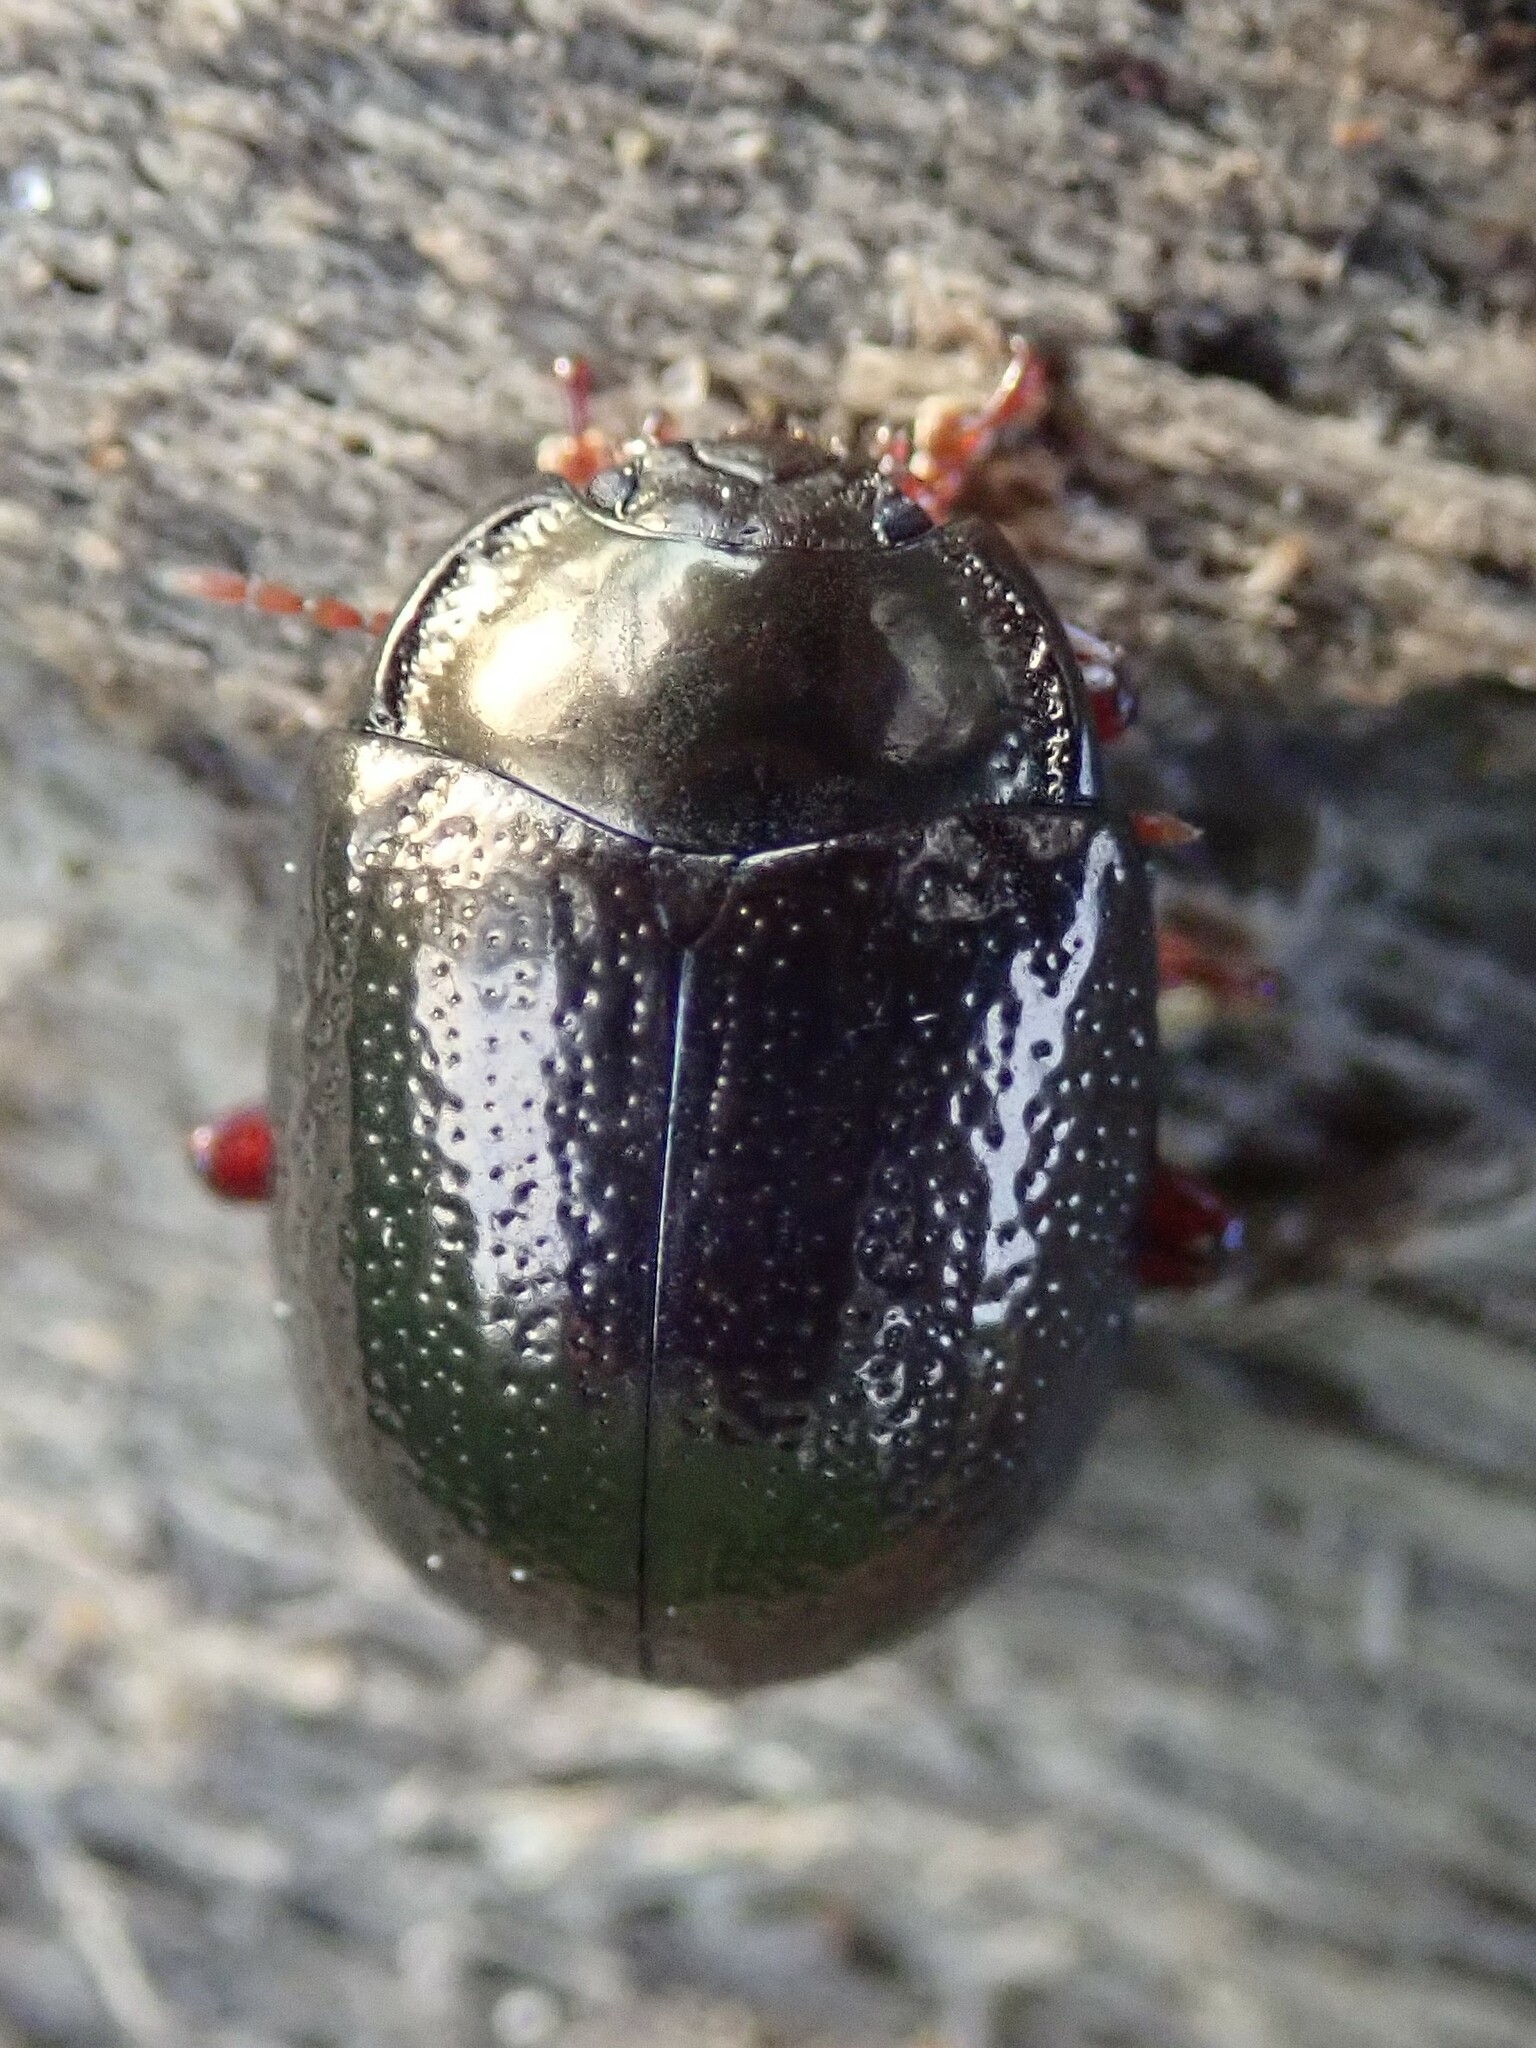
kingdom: Animalia
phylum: Arthropoda
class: Insecta
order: Coleoptera
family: Chrysomelidae
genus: Chrysolina
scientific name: Chrysolina bankii
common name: Leaf beetle
